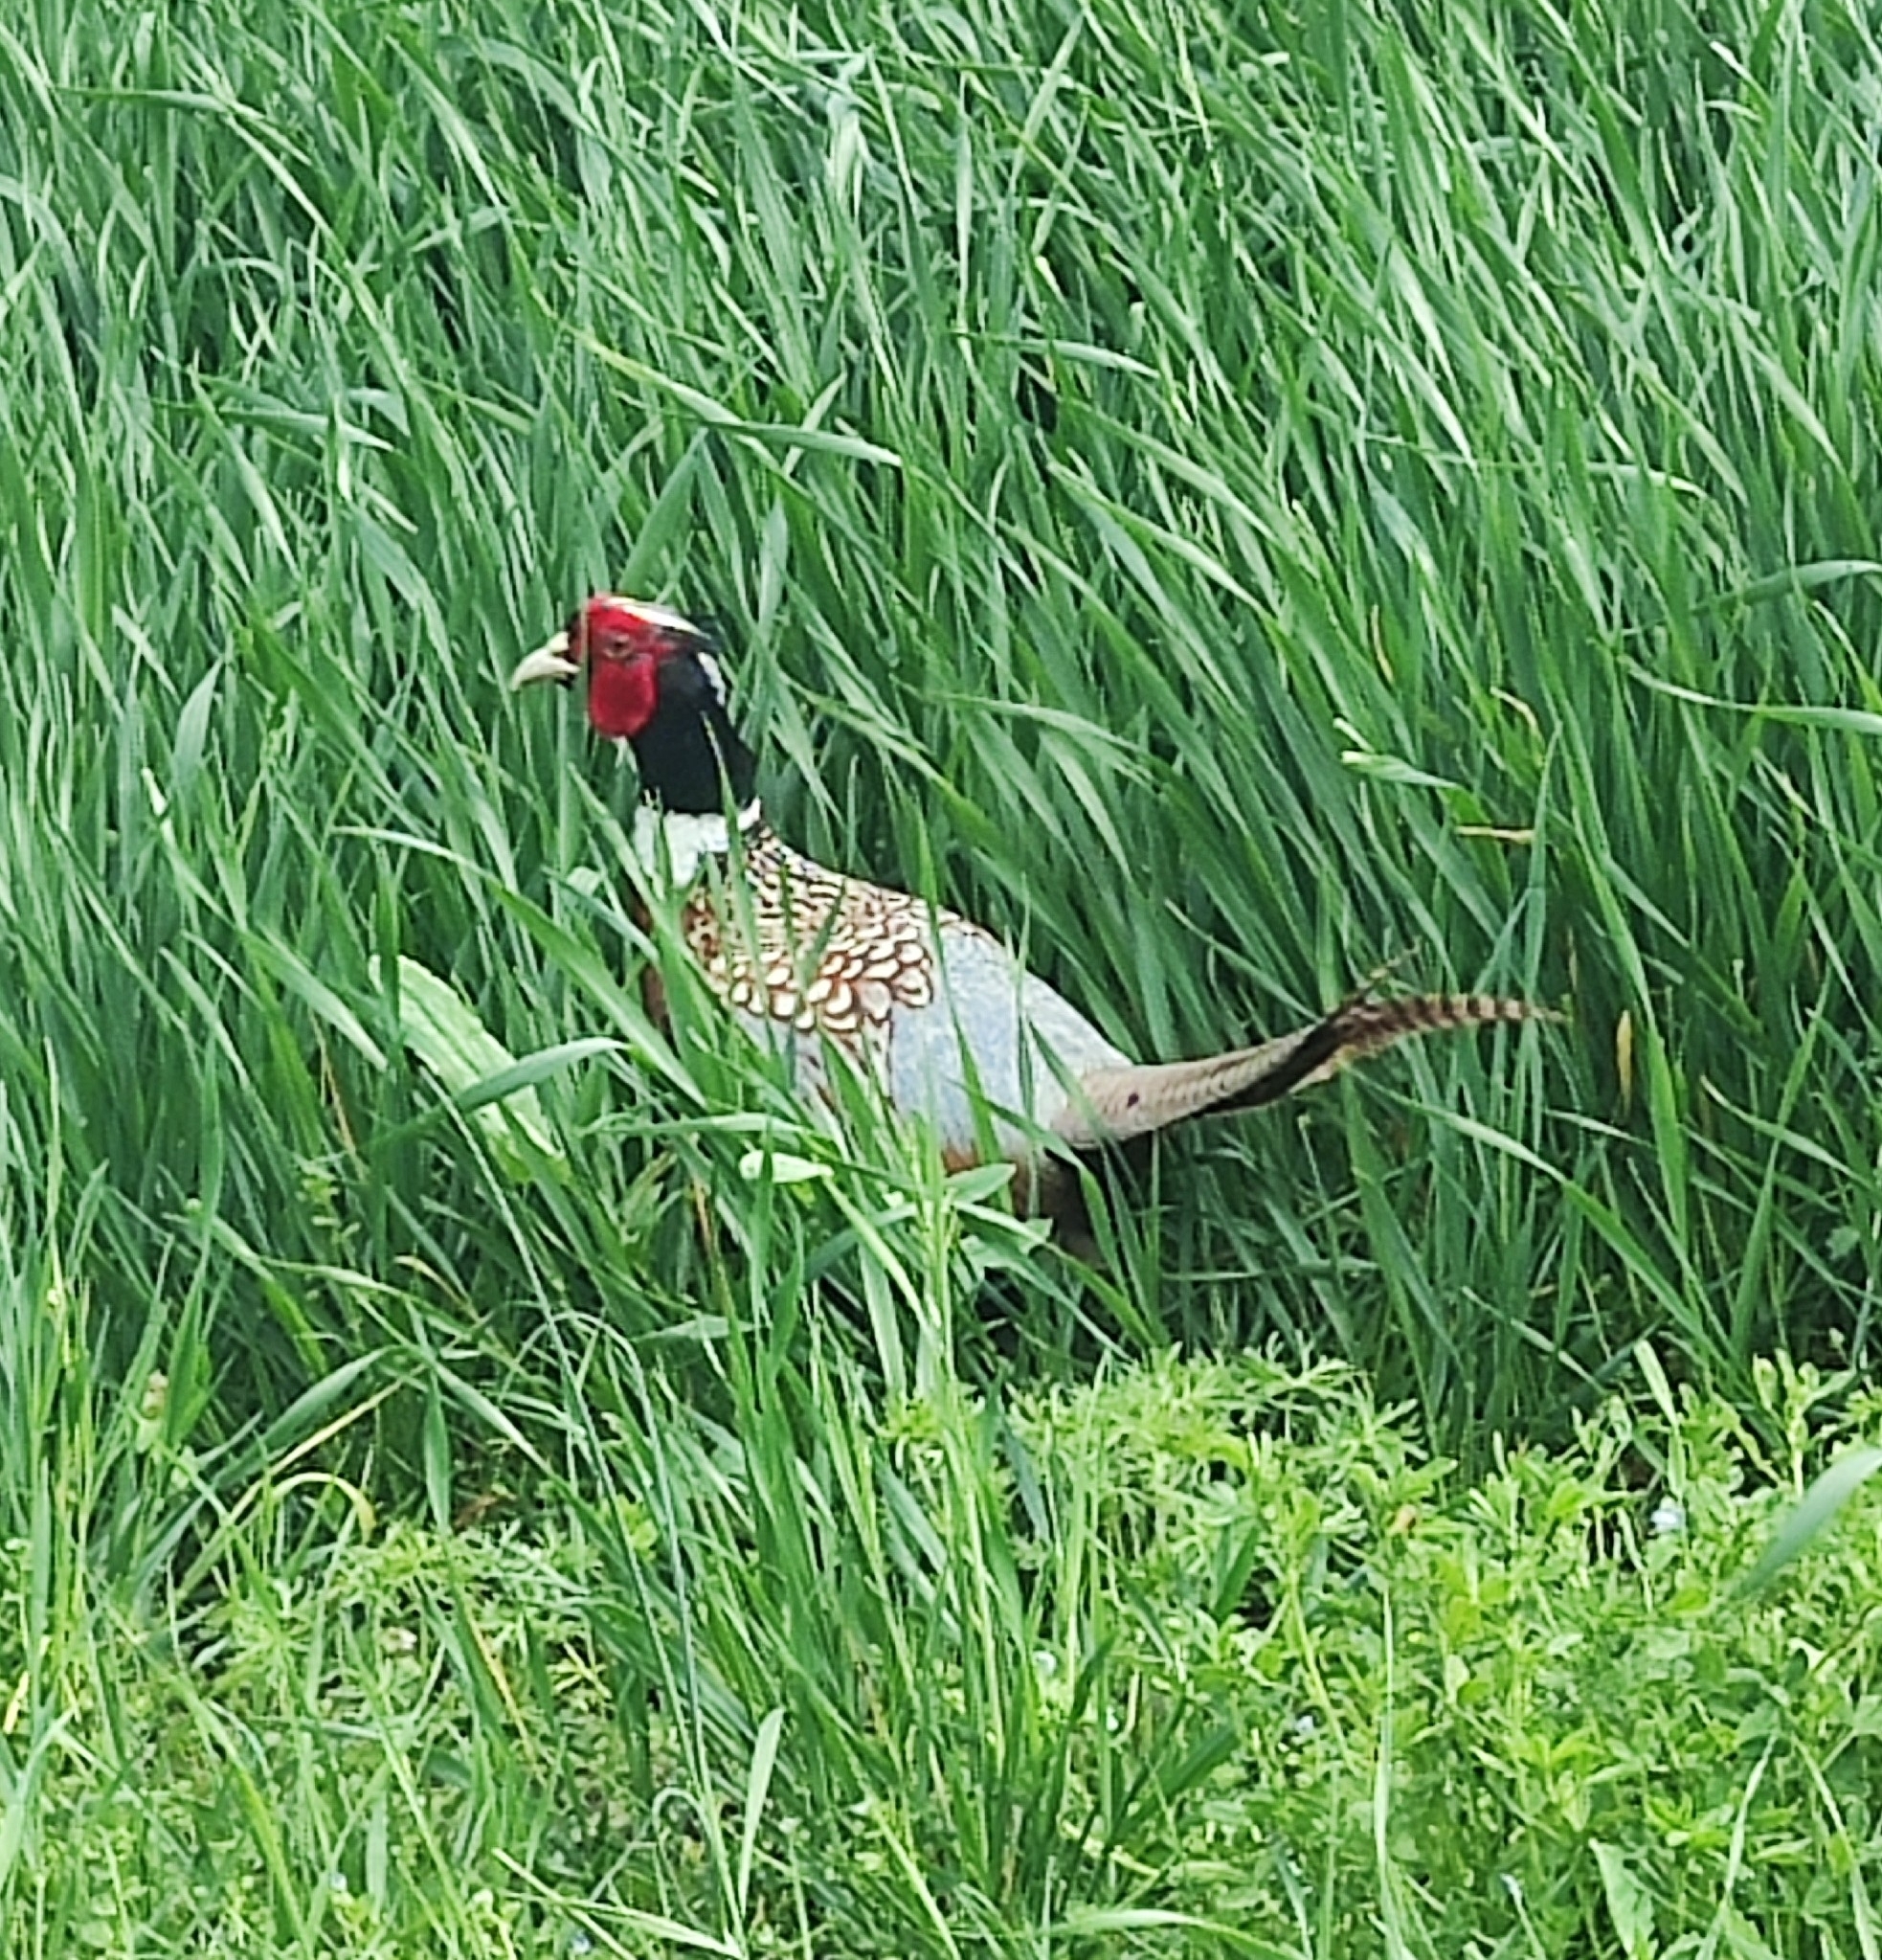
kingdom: Animalia
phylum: Chordata
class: Aves
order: Galliformes
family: Phasianidae
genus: Phasianus
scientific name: Phasianus colchicus
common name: Common pheasant
